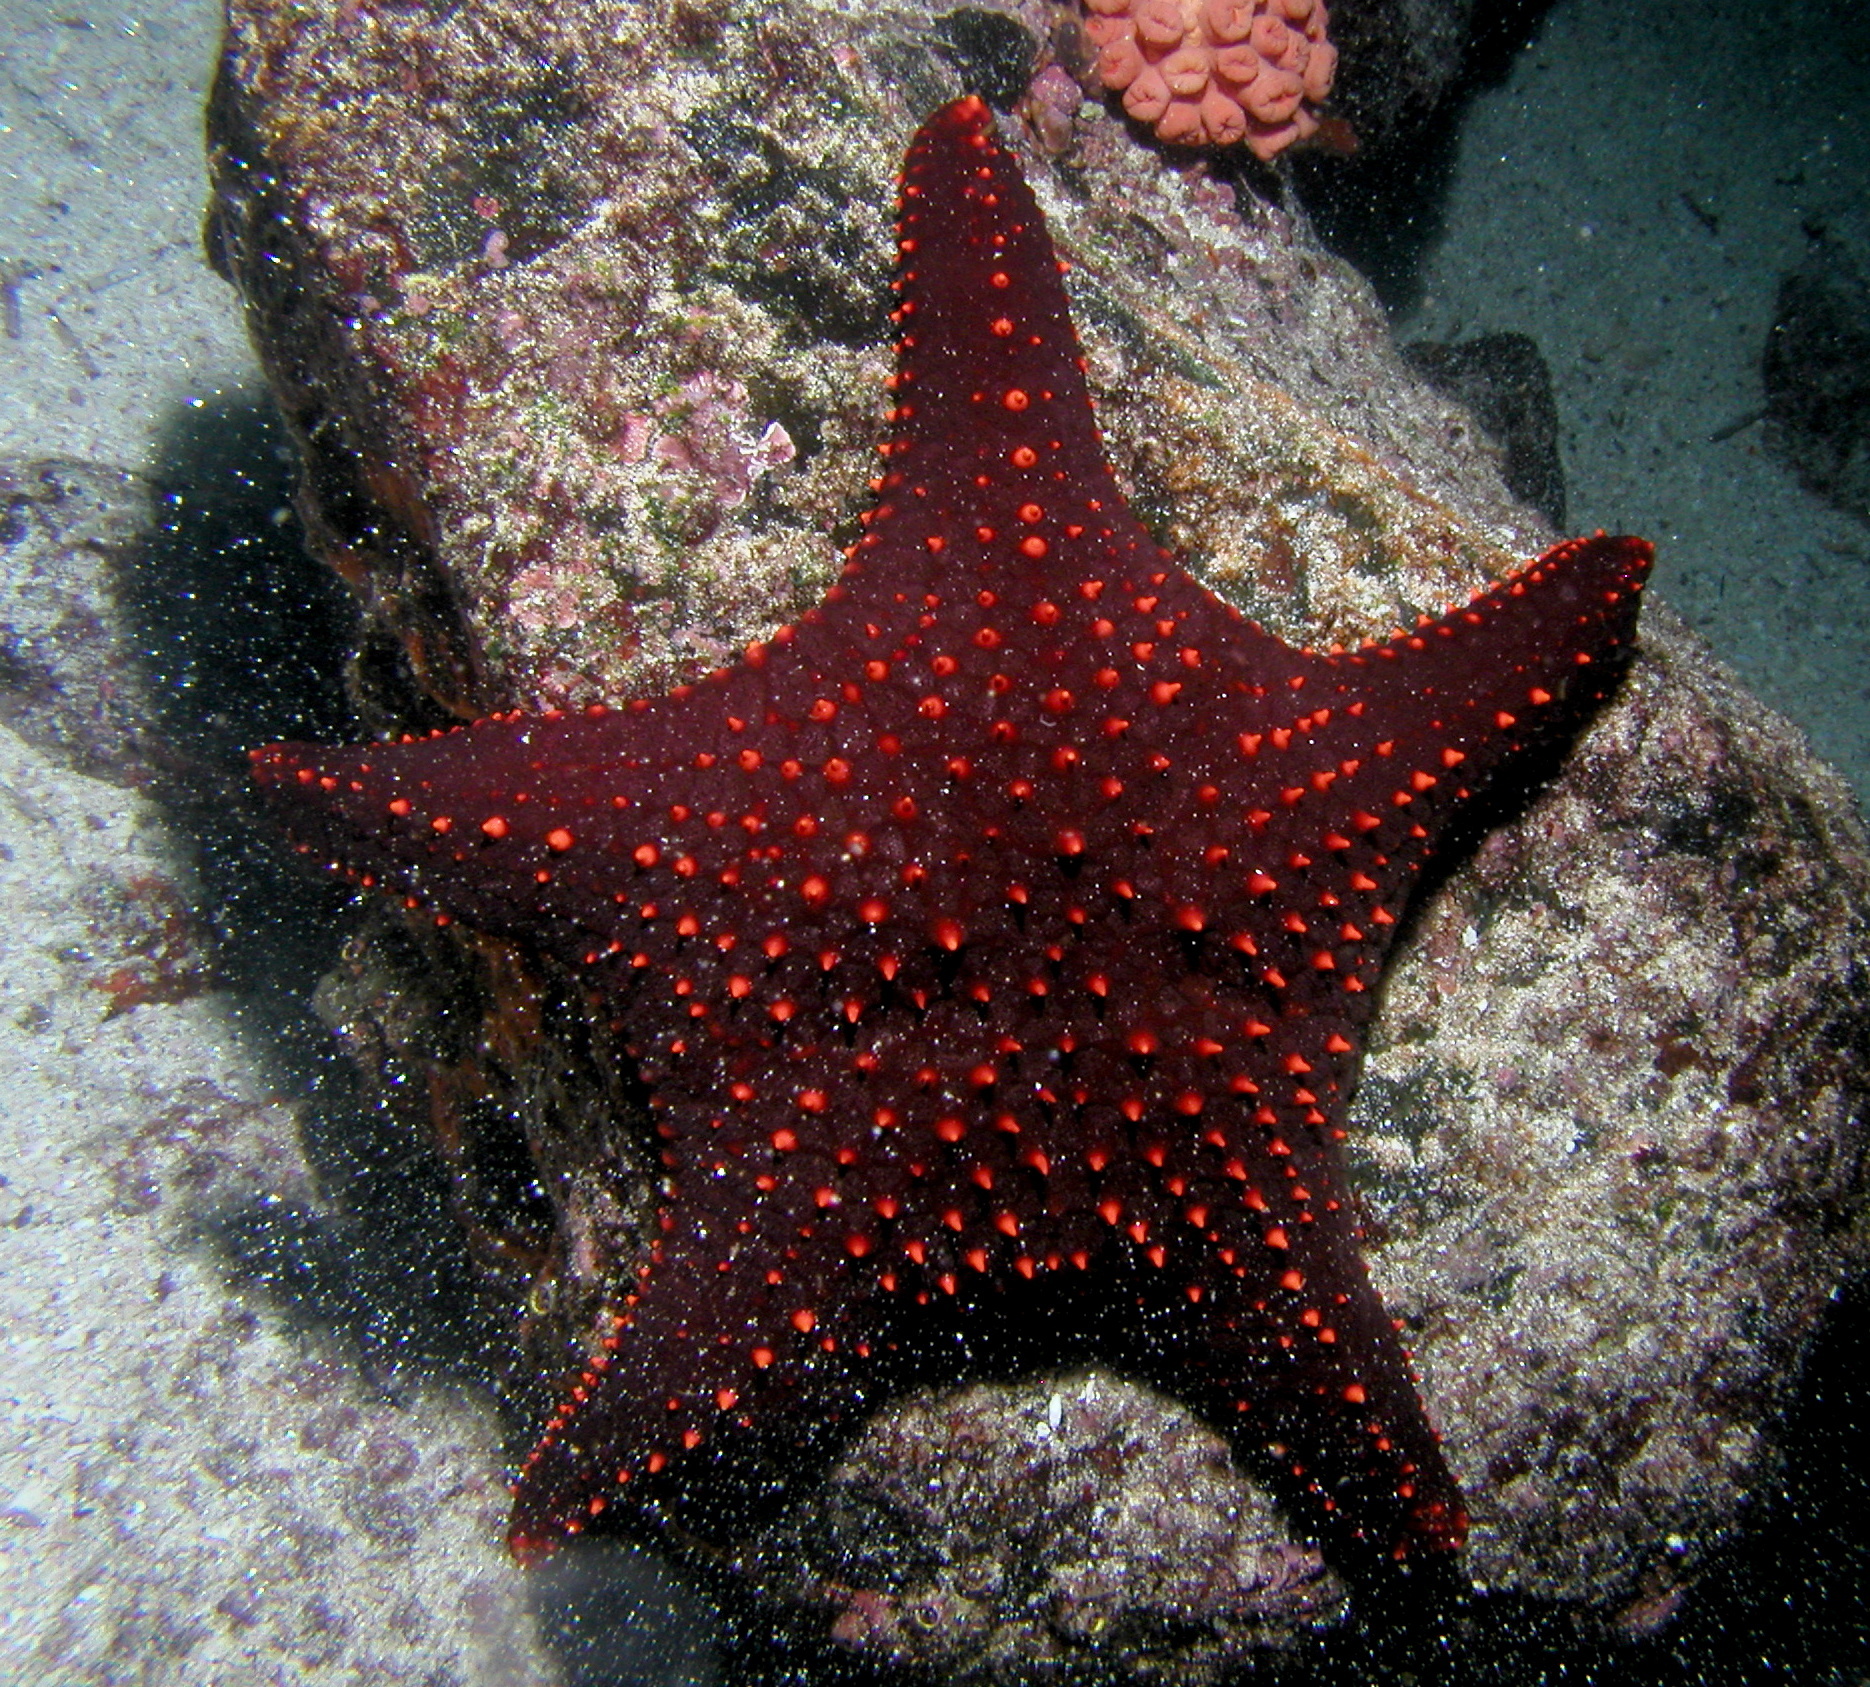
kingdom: Animalia
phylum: Echinodermata
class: Asteroidea
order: Valvatida
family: Oreasteridae
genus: Pentaceraster
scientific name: Pentaceraster cumingi
